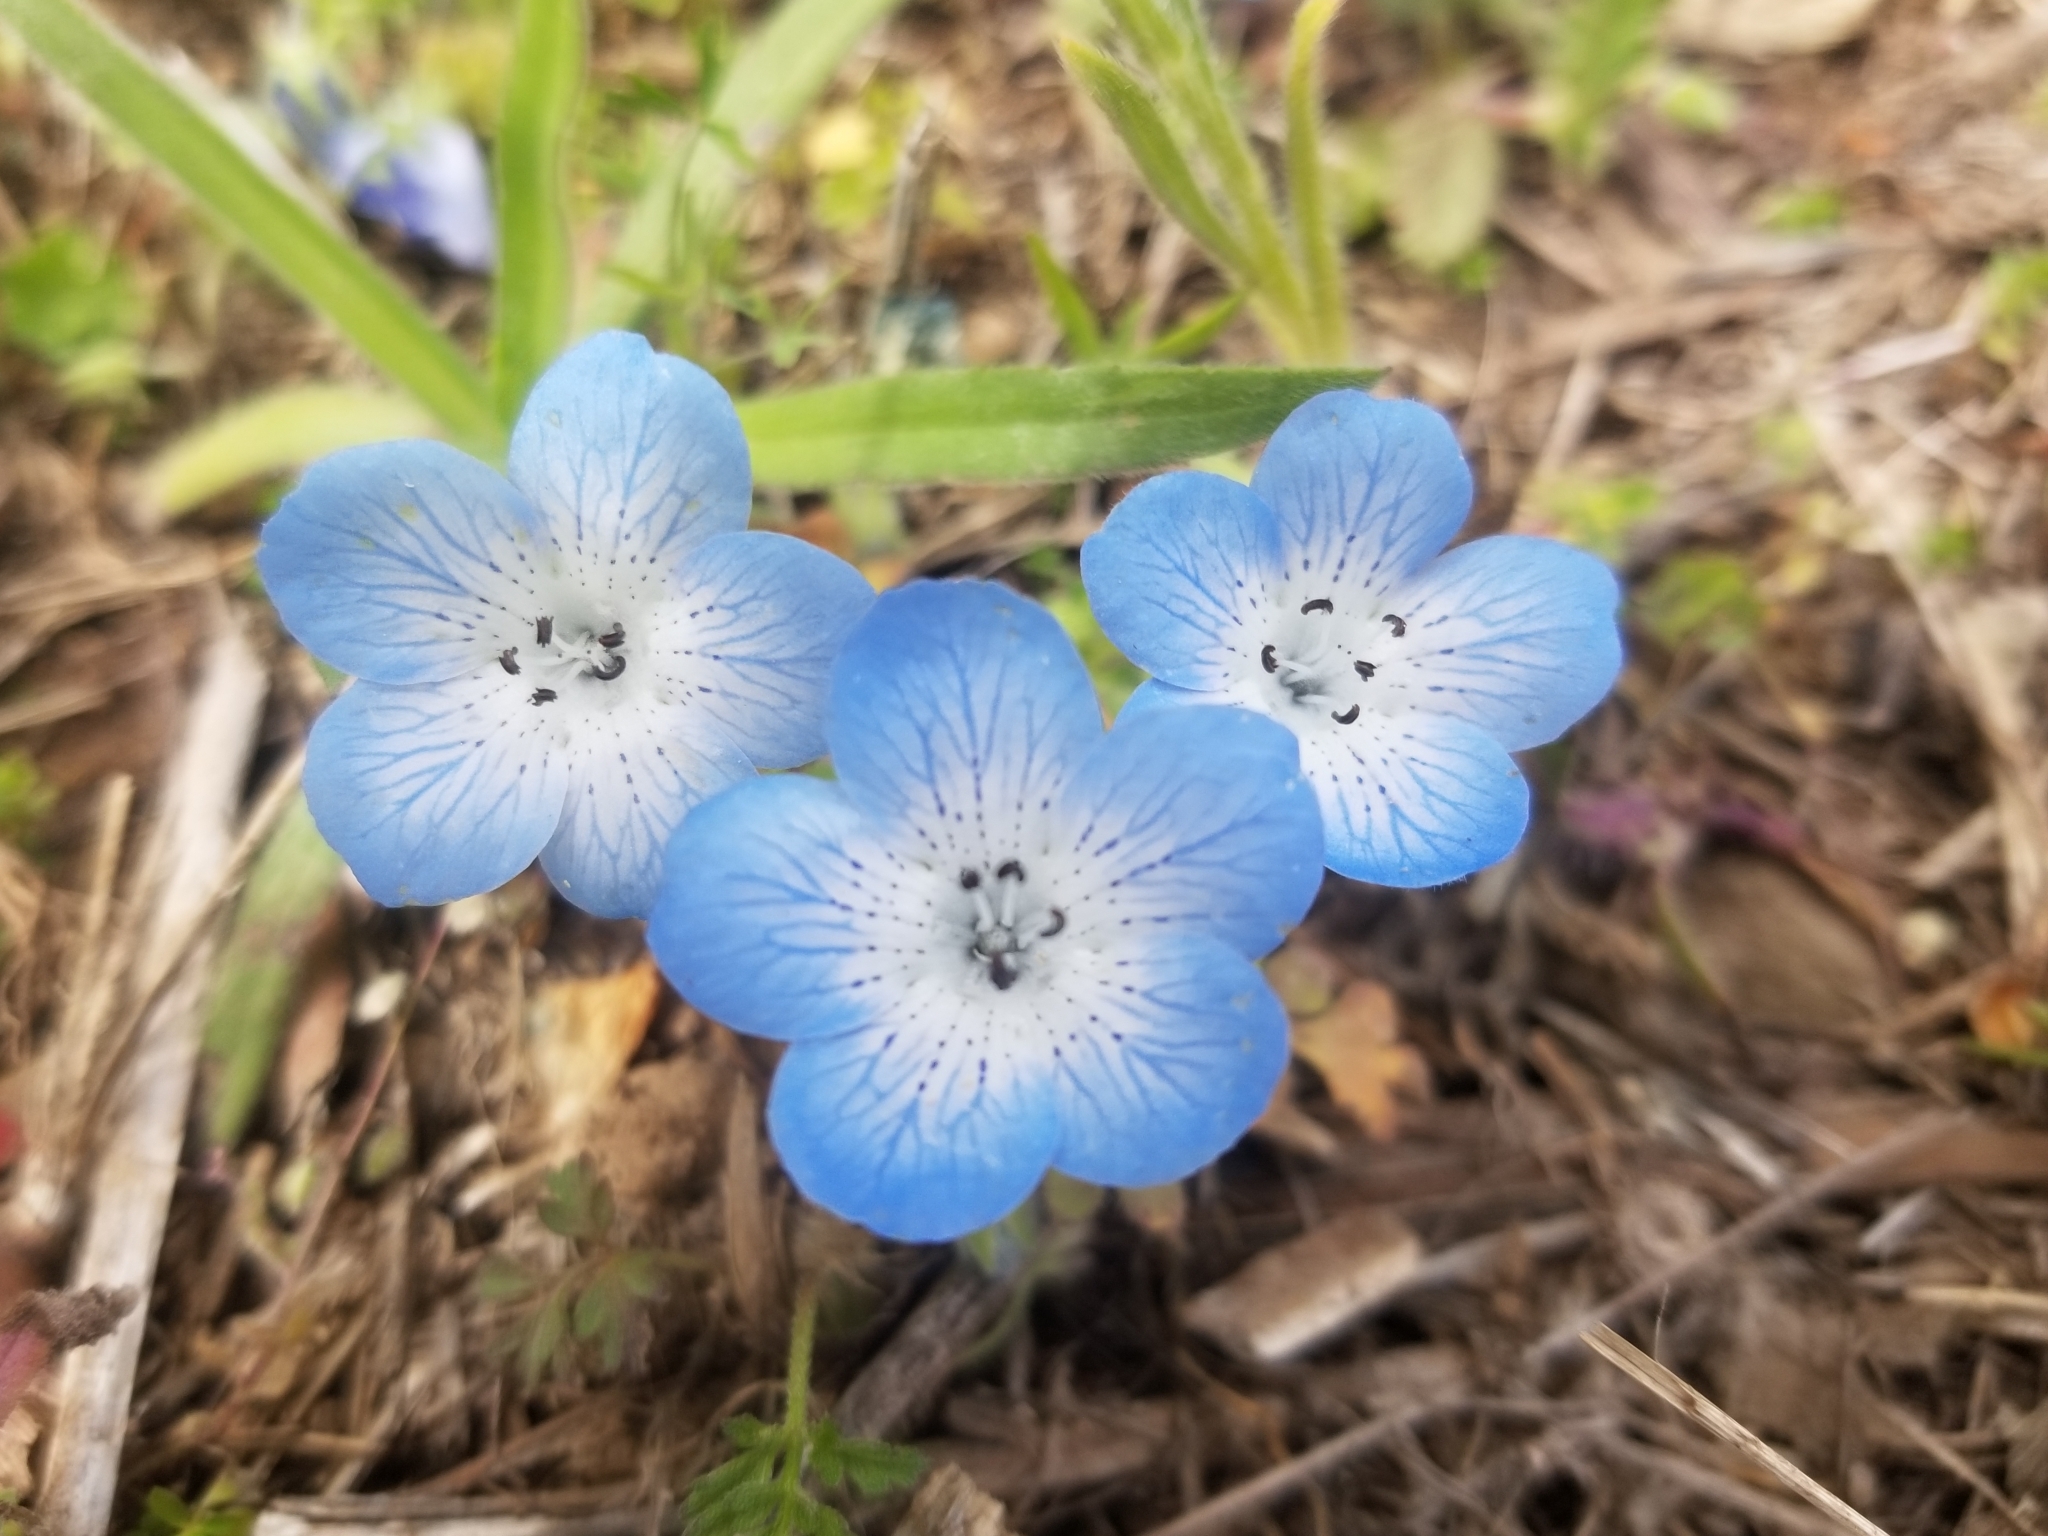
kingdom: Plantae
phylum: Tracheophyta
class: Magnoliopsida
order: Boraginales
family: Hydrophyllaceae
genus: Nemophila
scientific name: Nemophila menziesii
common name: Baby's-blue-eyes
